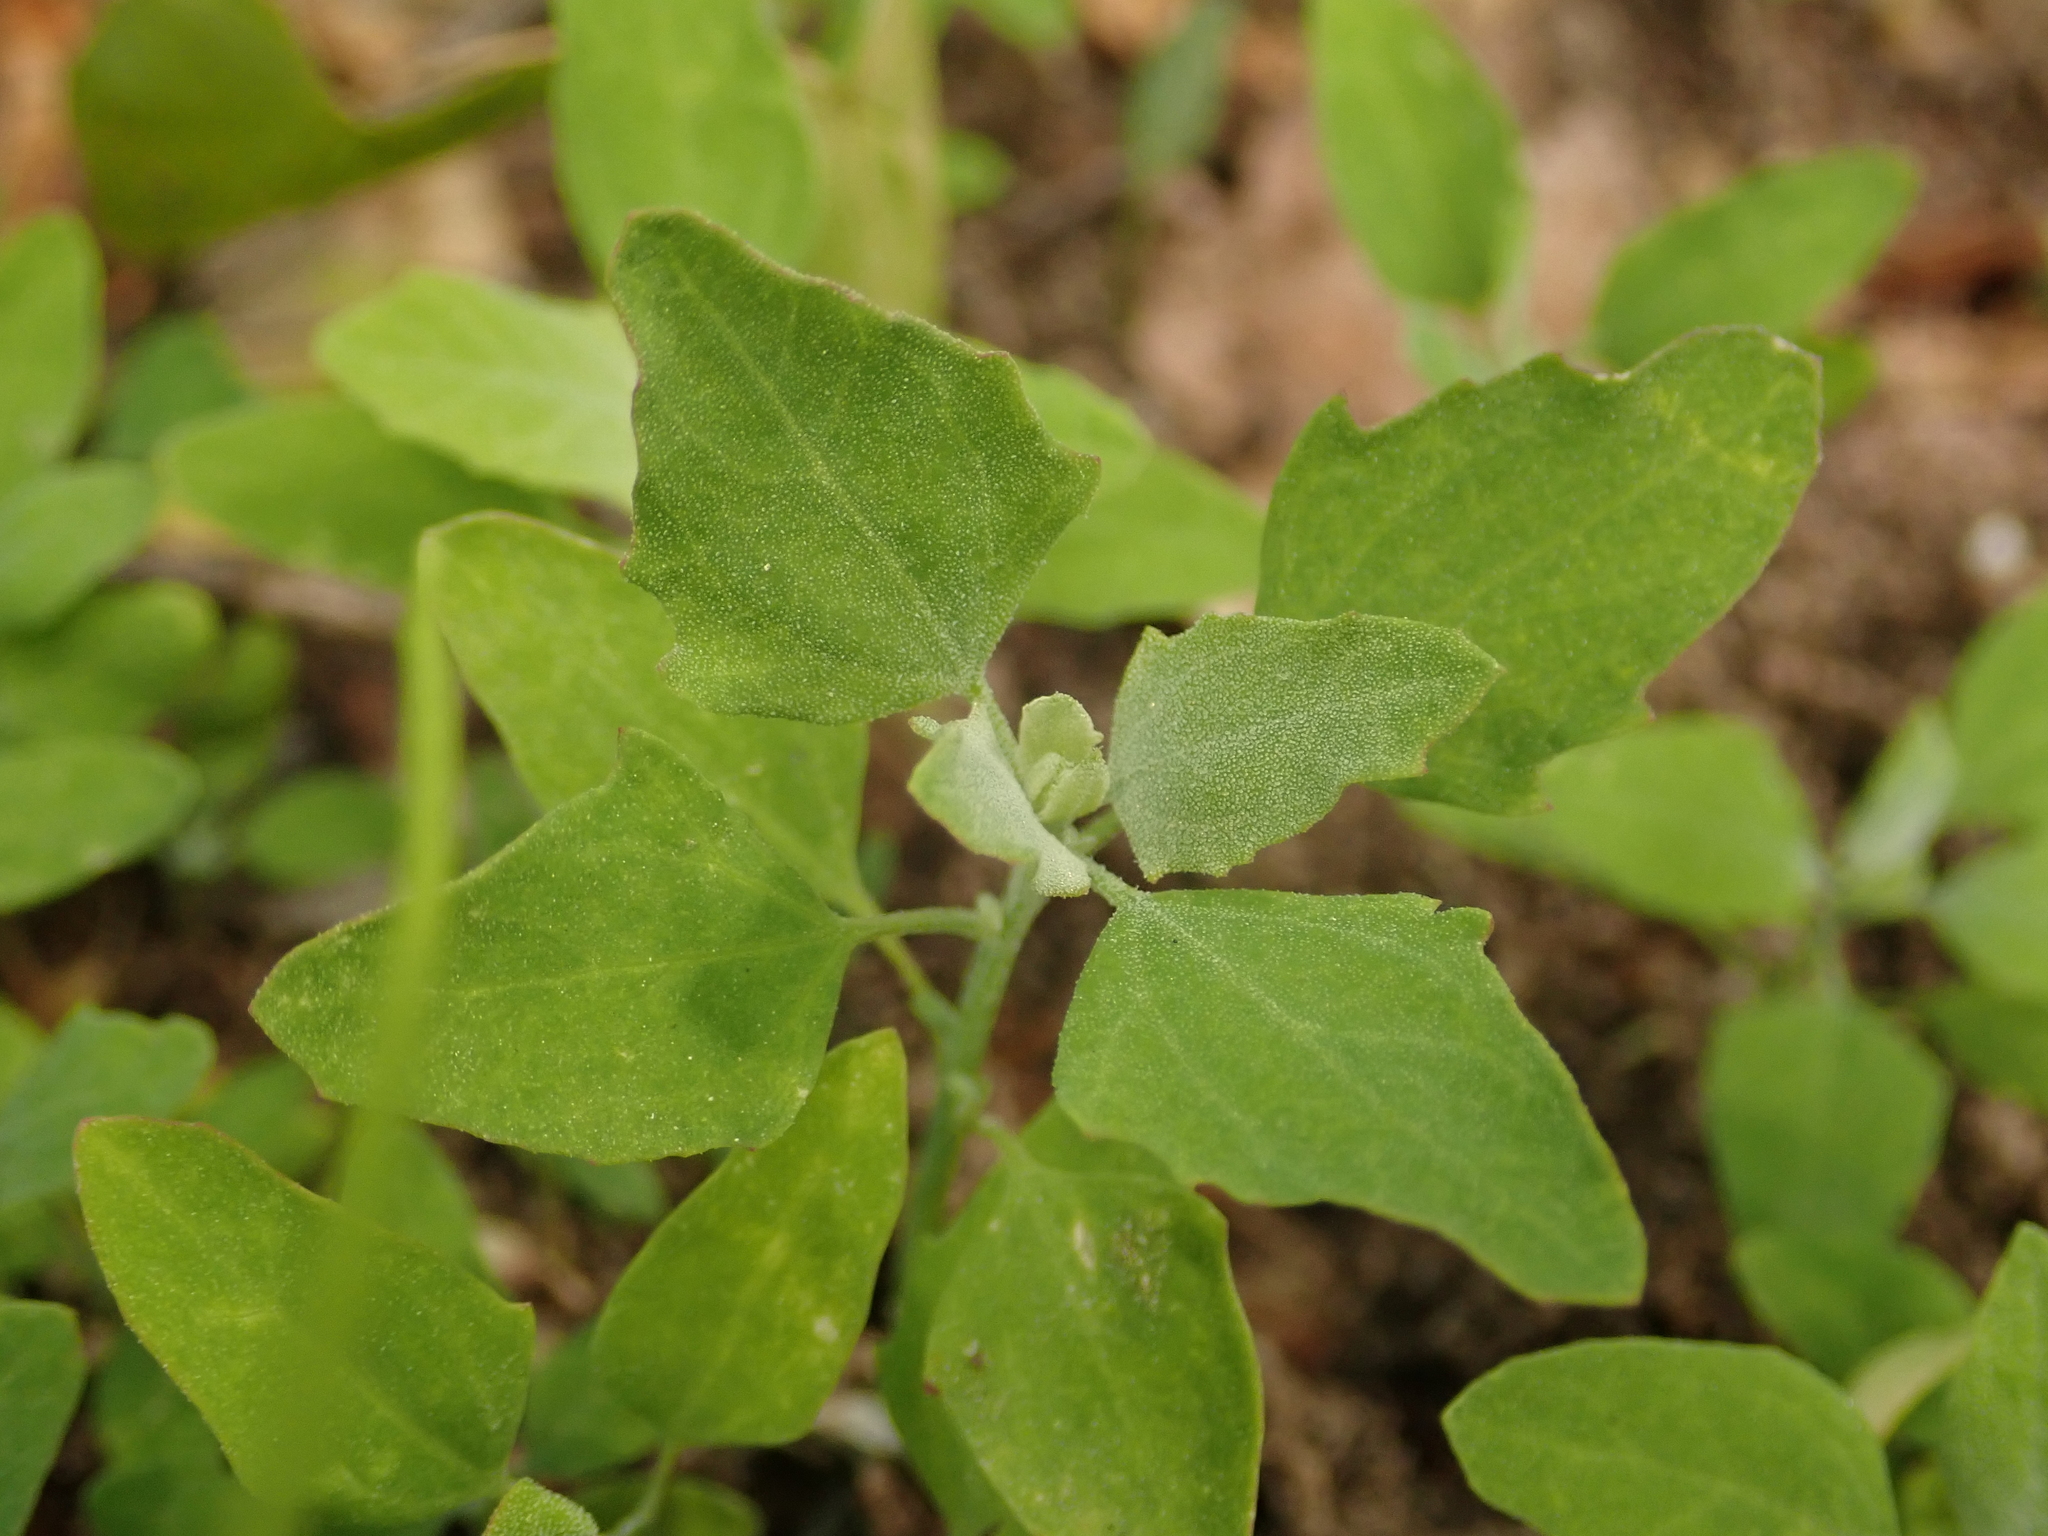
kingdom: Plantae
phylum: Tracheophyta
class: Magnoliopsida
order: Caryophyllales
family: Amaranthaceae
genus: Chenopodium
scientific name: Chenopodium album
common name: Fat-hen
